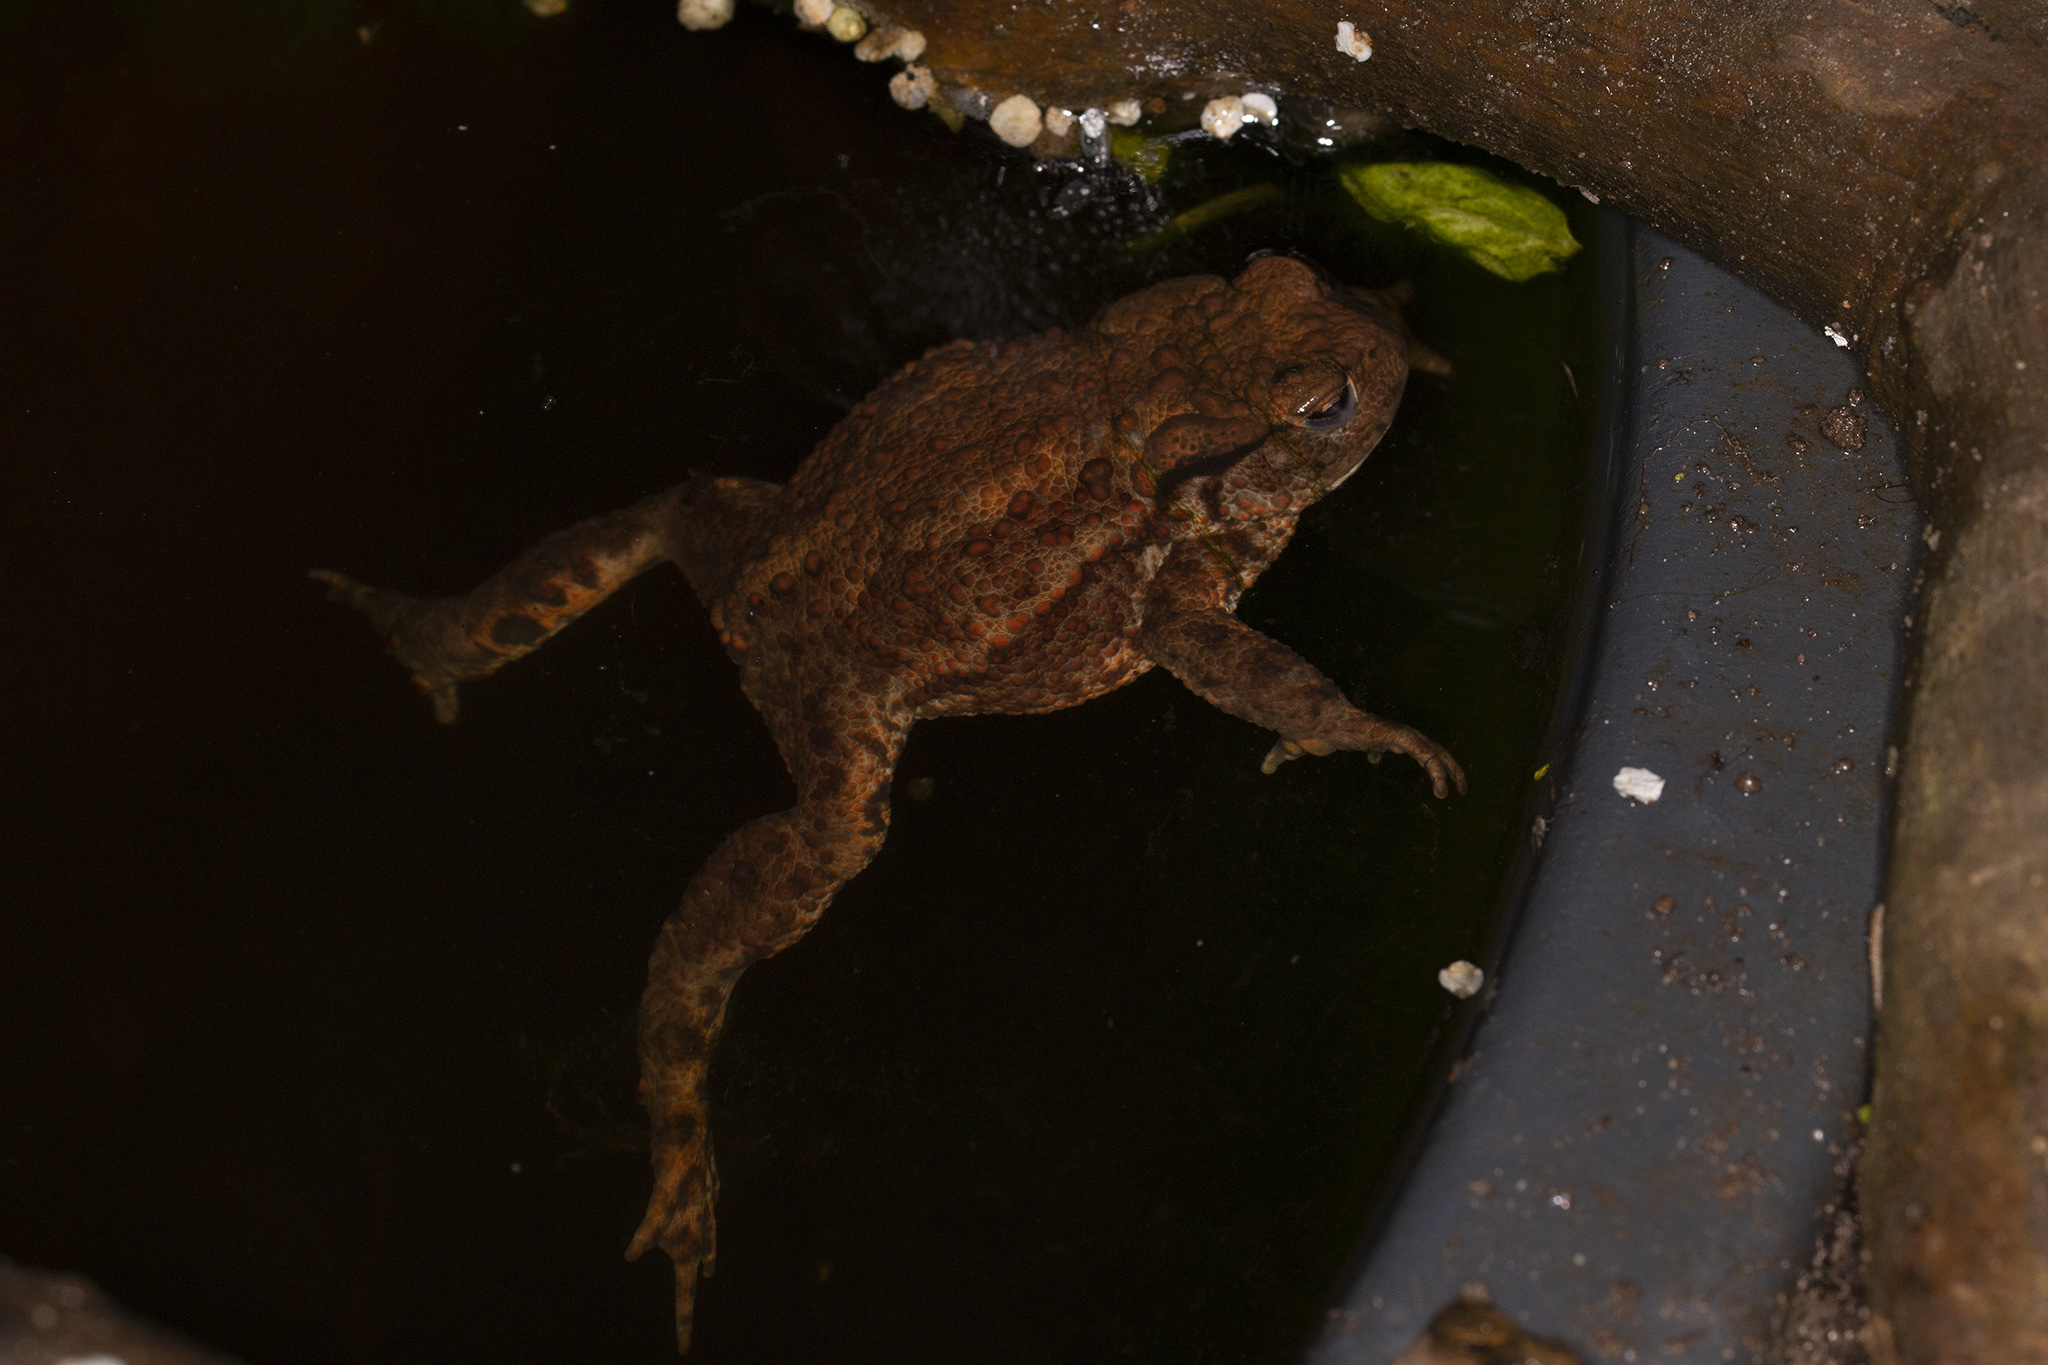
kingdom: Animalia
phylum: Chordata
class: Amphibia
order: Anura
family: Bufonidae
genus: Bufo
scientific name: Bufo bufo
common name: Common toad
